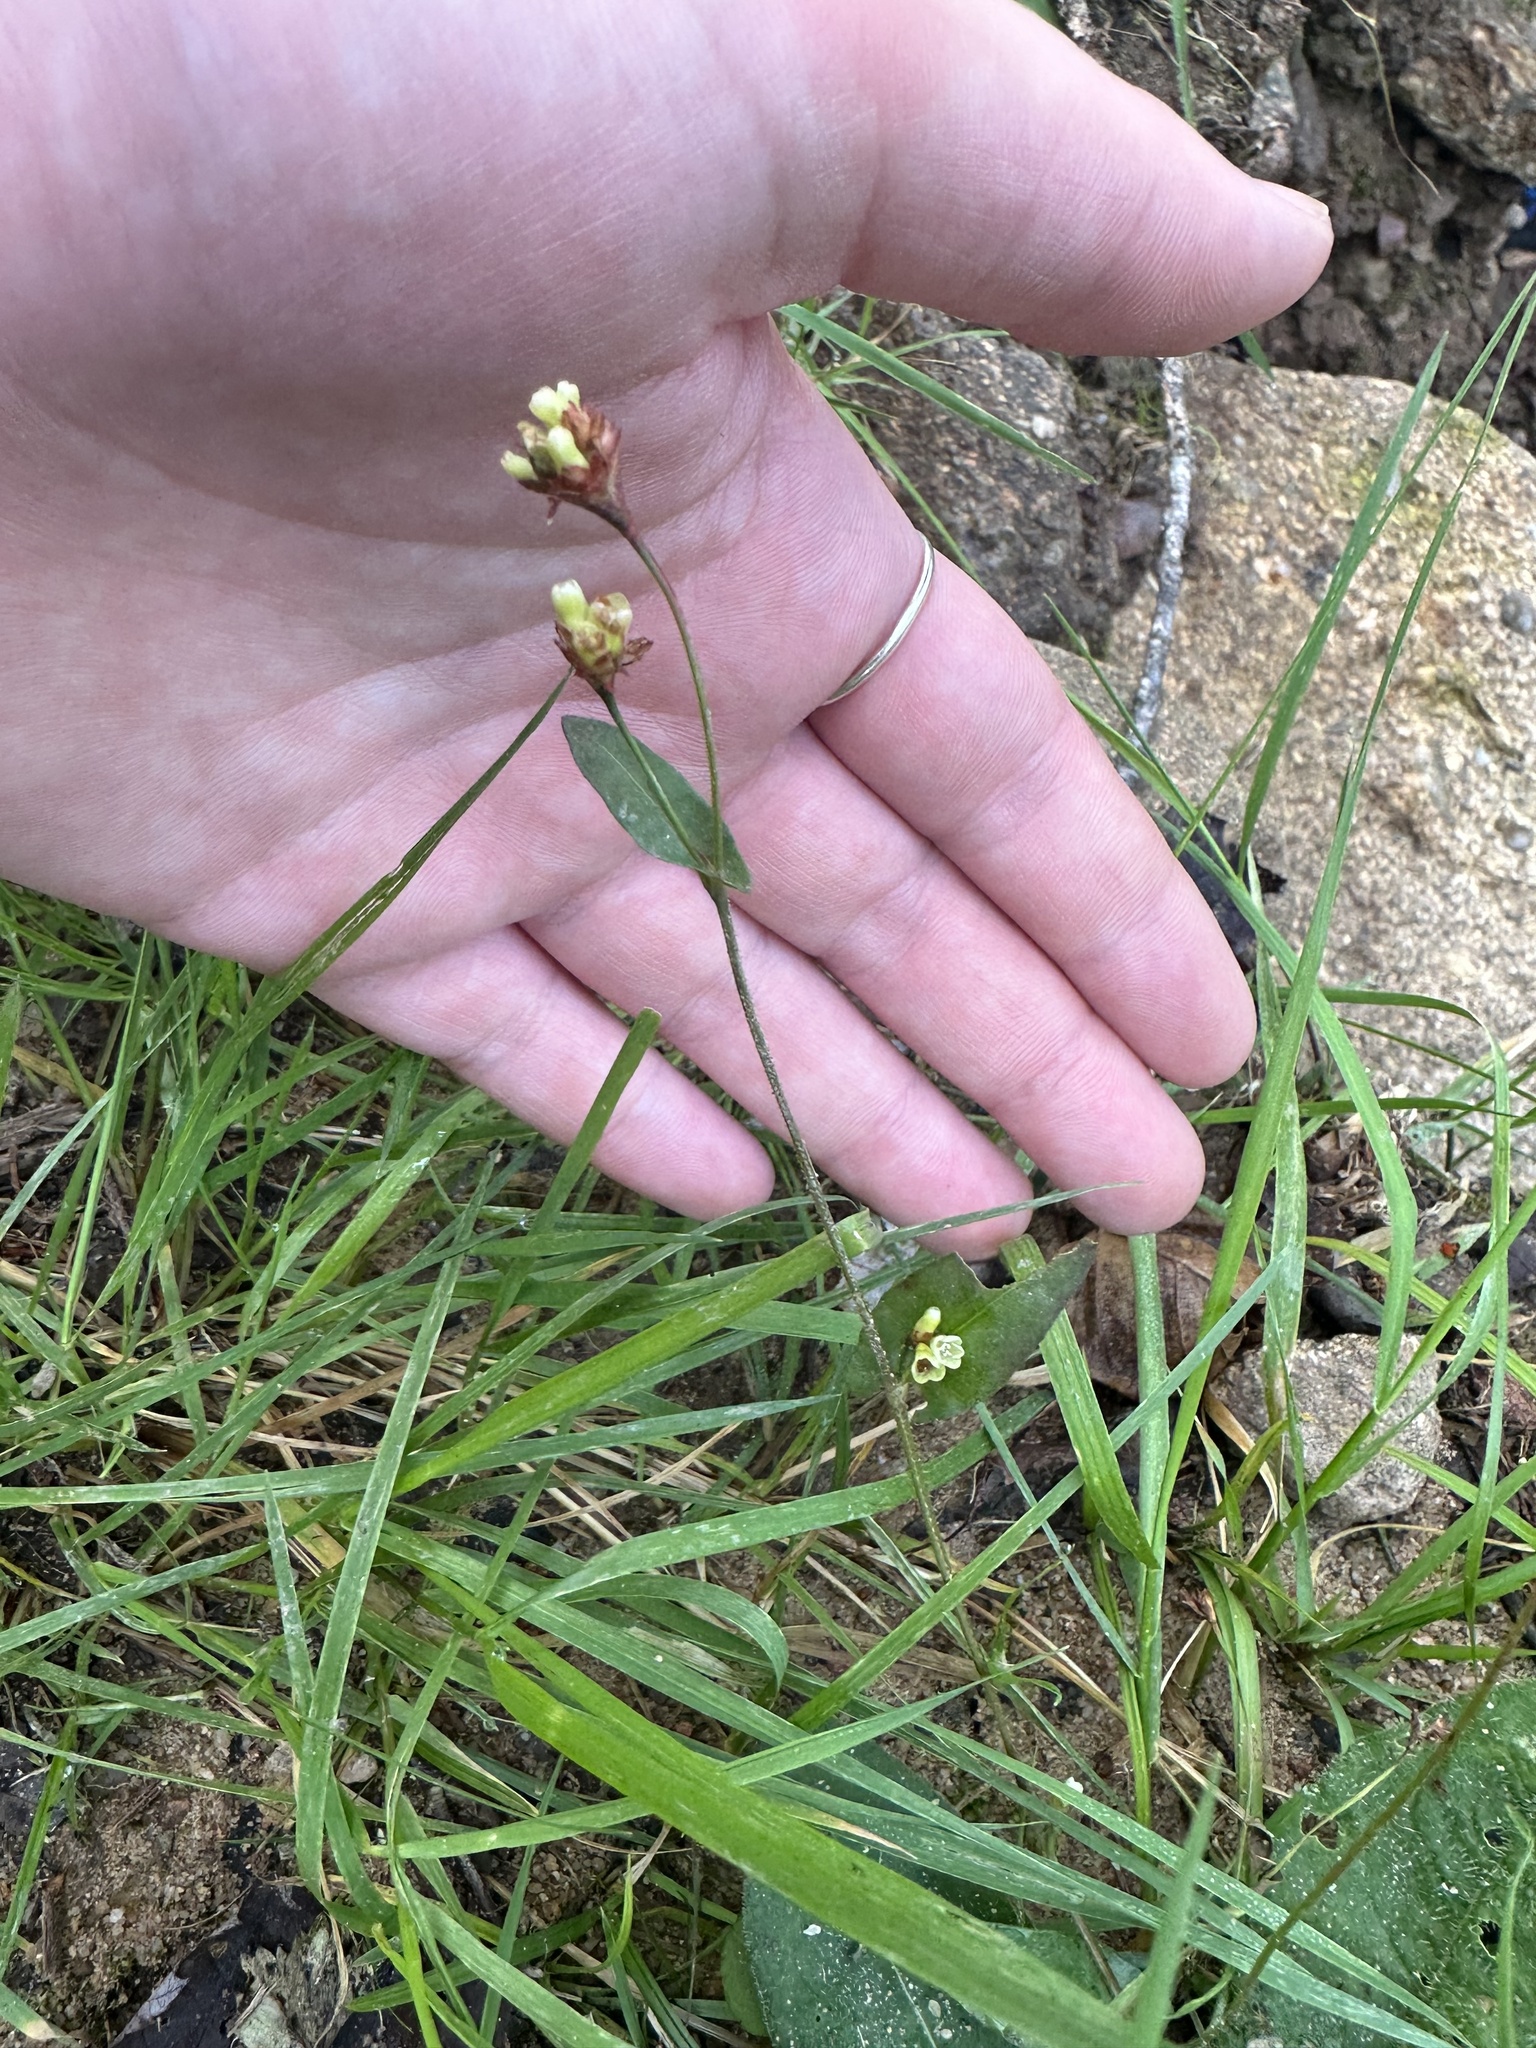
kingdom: Plantae
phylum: Tracheophyta
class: Magnoliopsida
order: Caryophyllales
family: Polygonaceae
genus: Persicaria
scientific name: Persicaria sagittata
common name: American tearthumb
